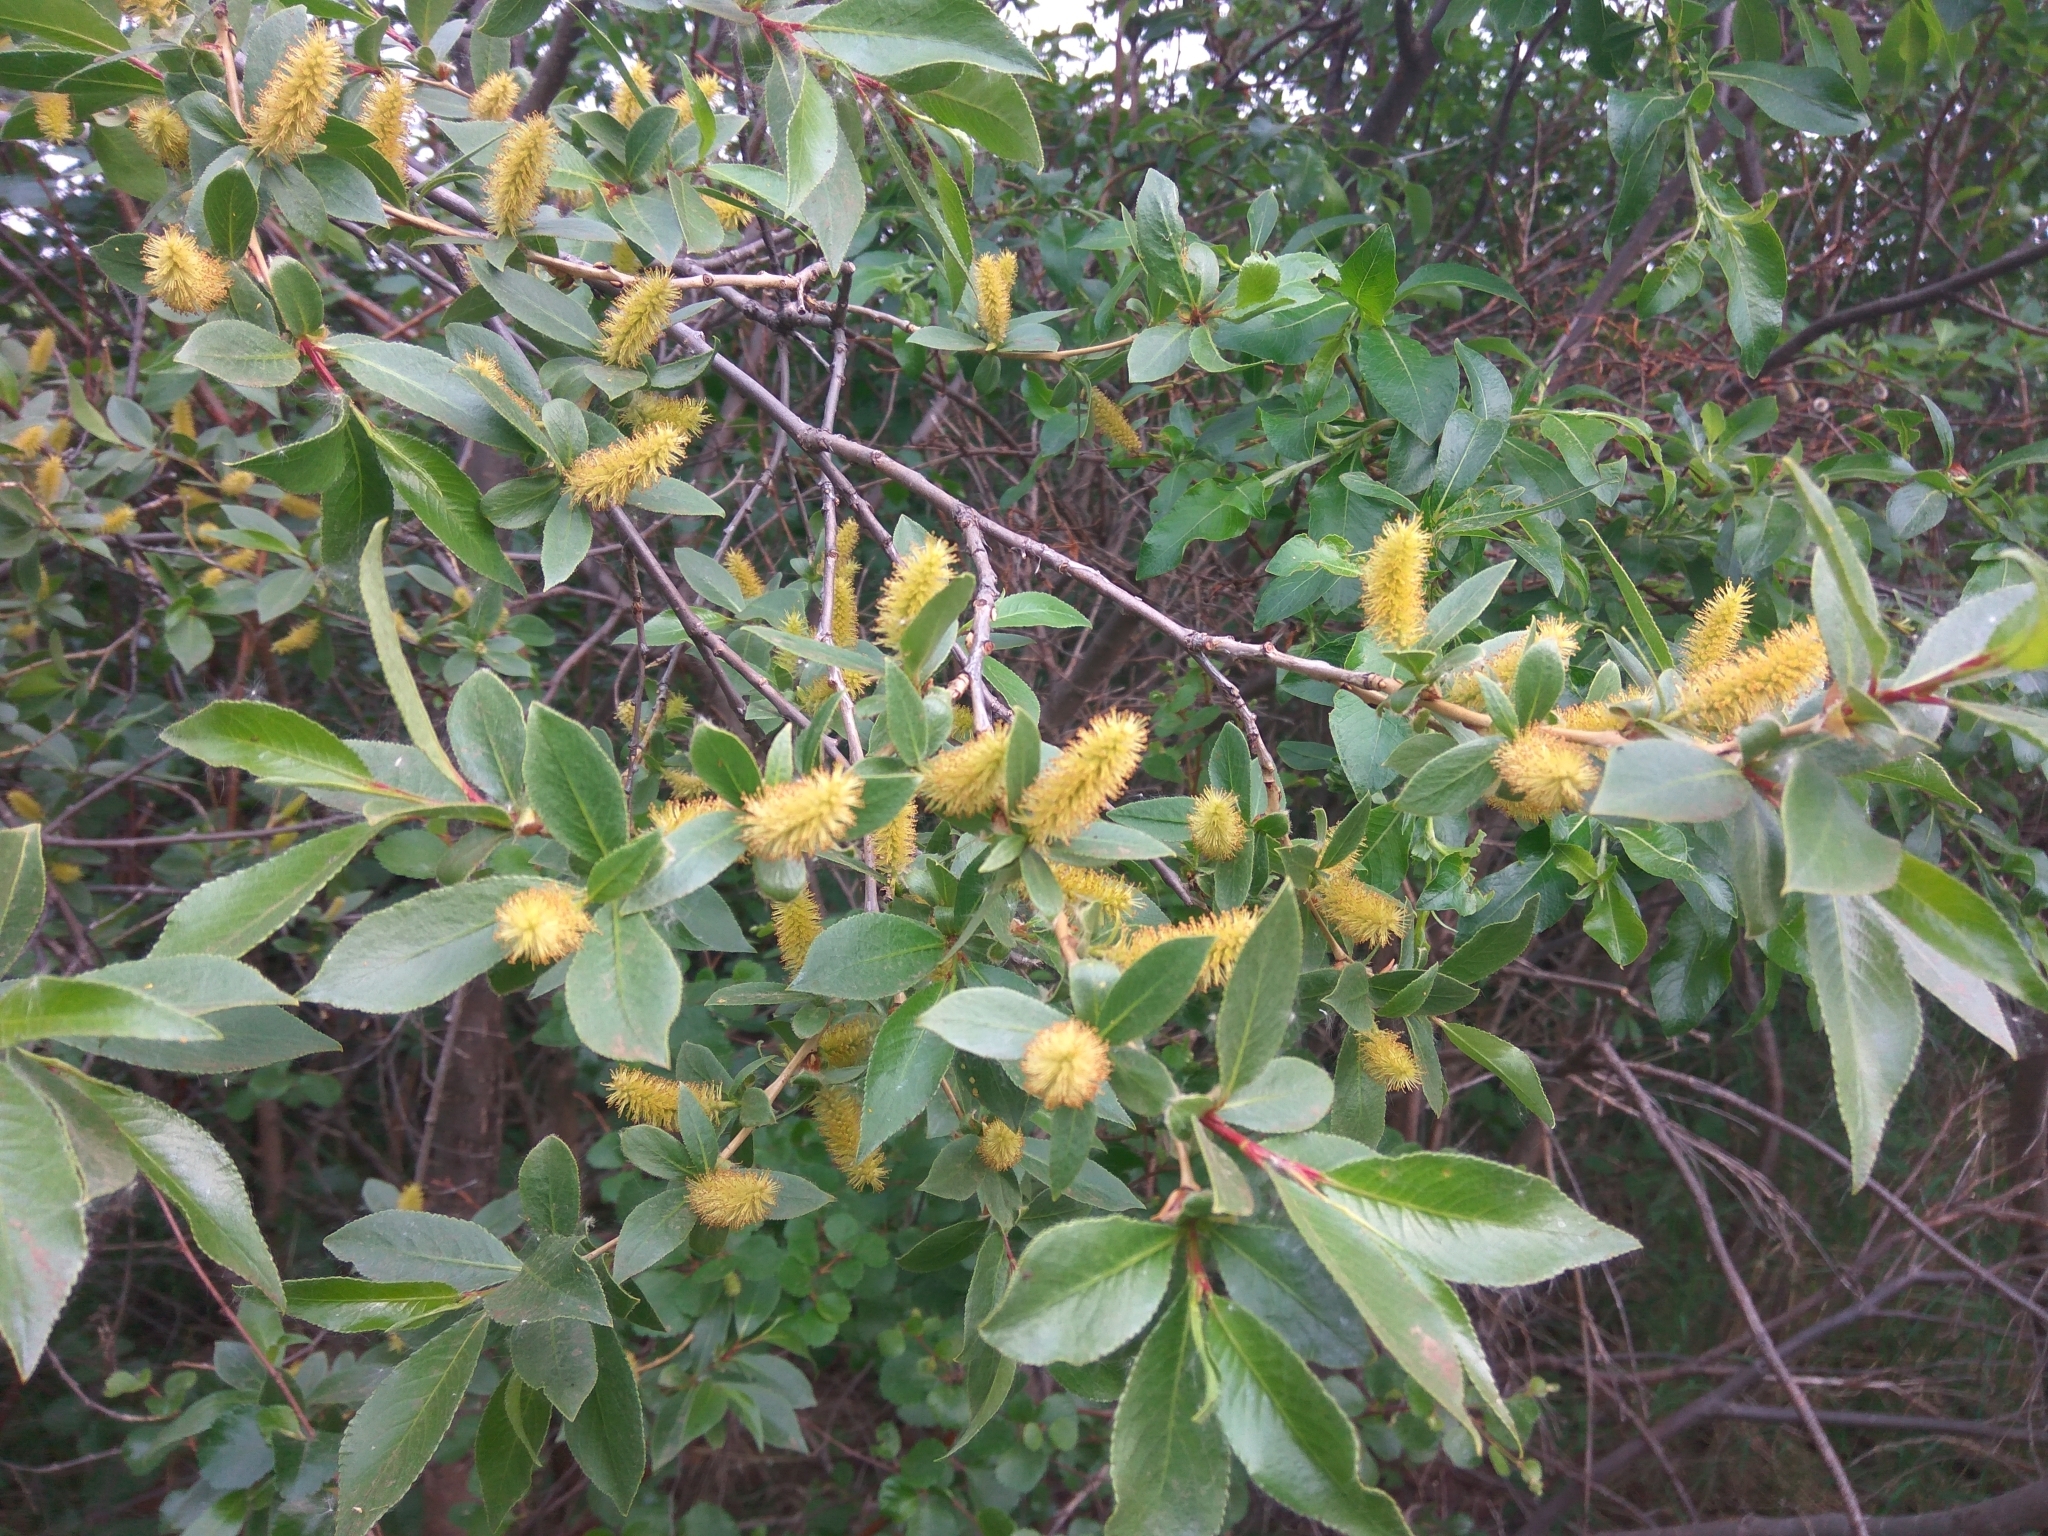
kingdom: Plantae
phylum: Tracheophyta
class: Magnoliopsida
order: Malpighiales
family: Salicaceae
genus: Salix
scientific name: Salix pseudopentandra
